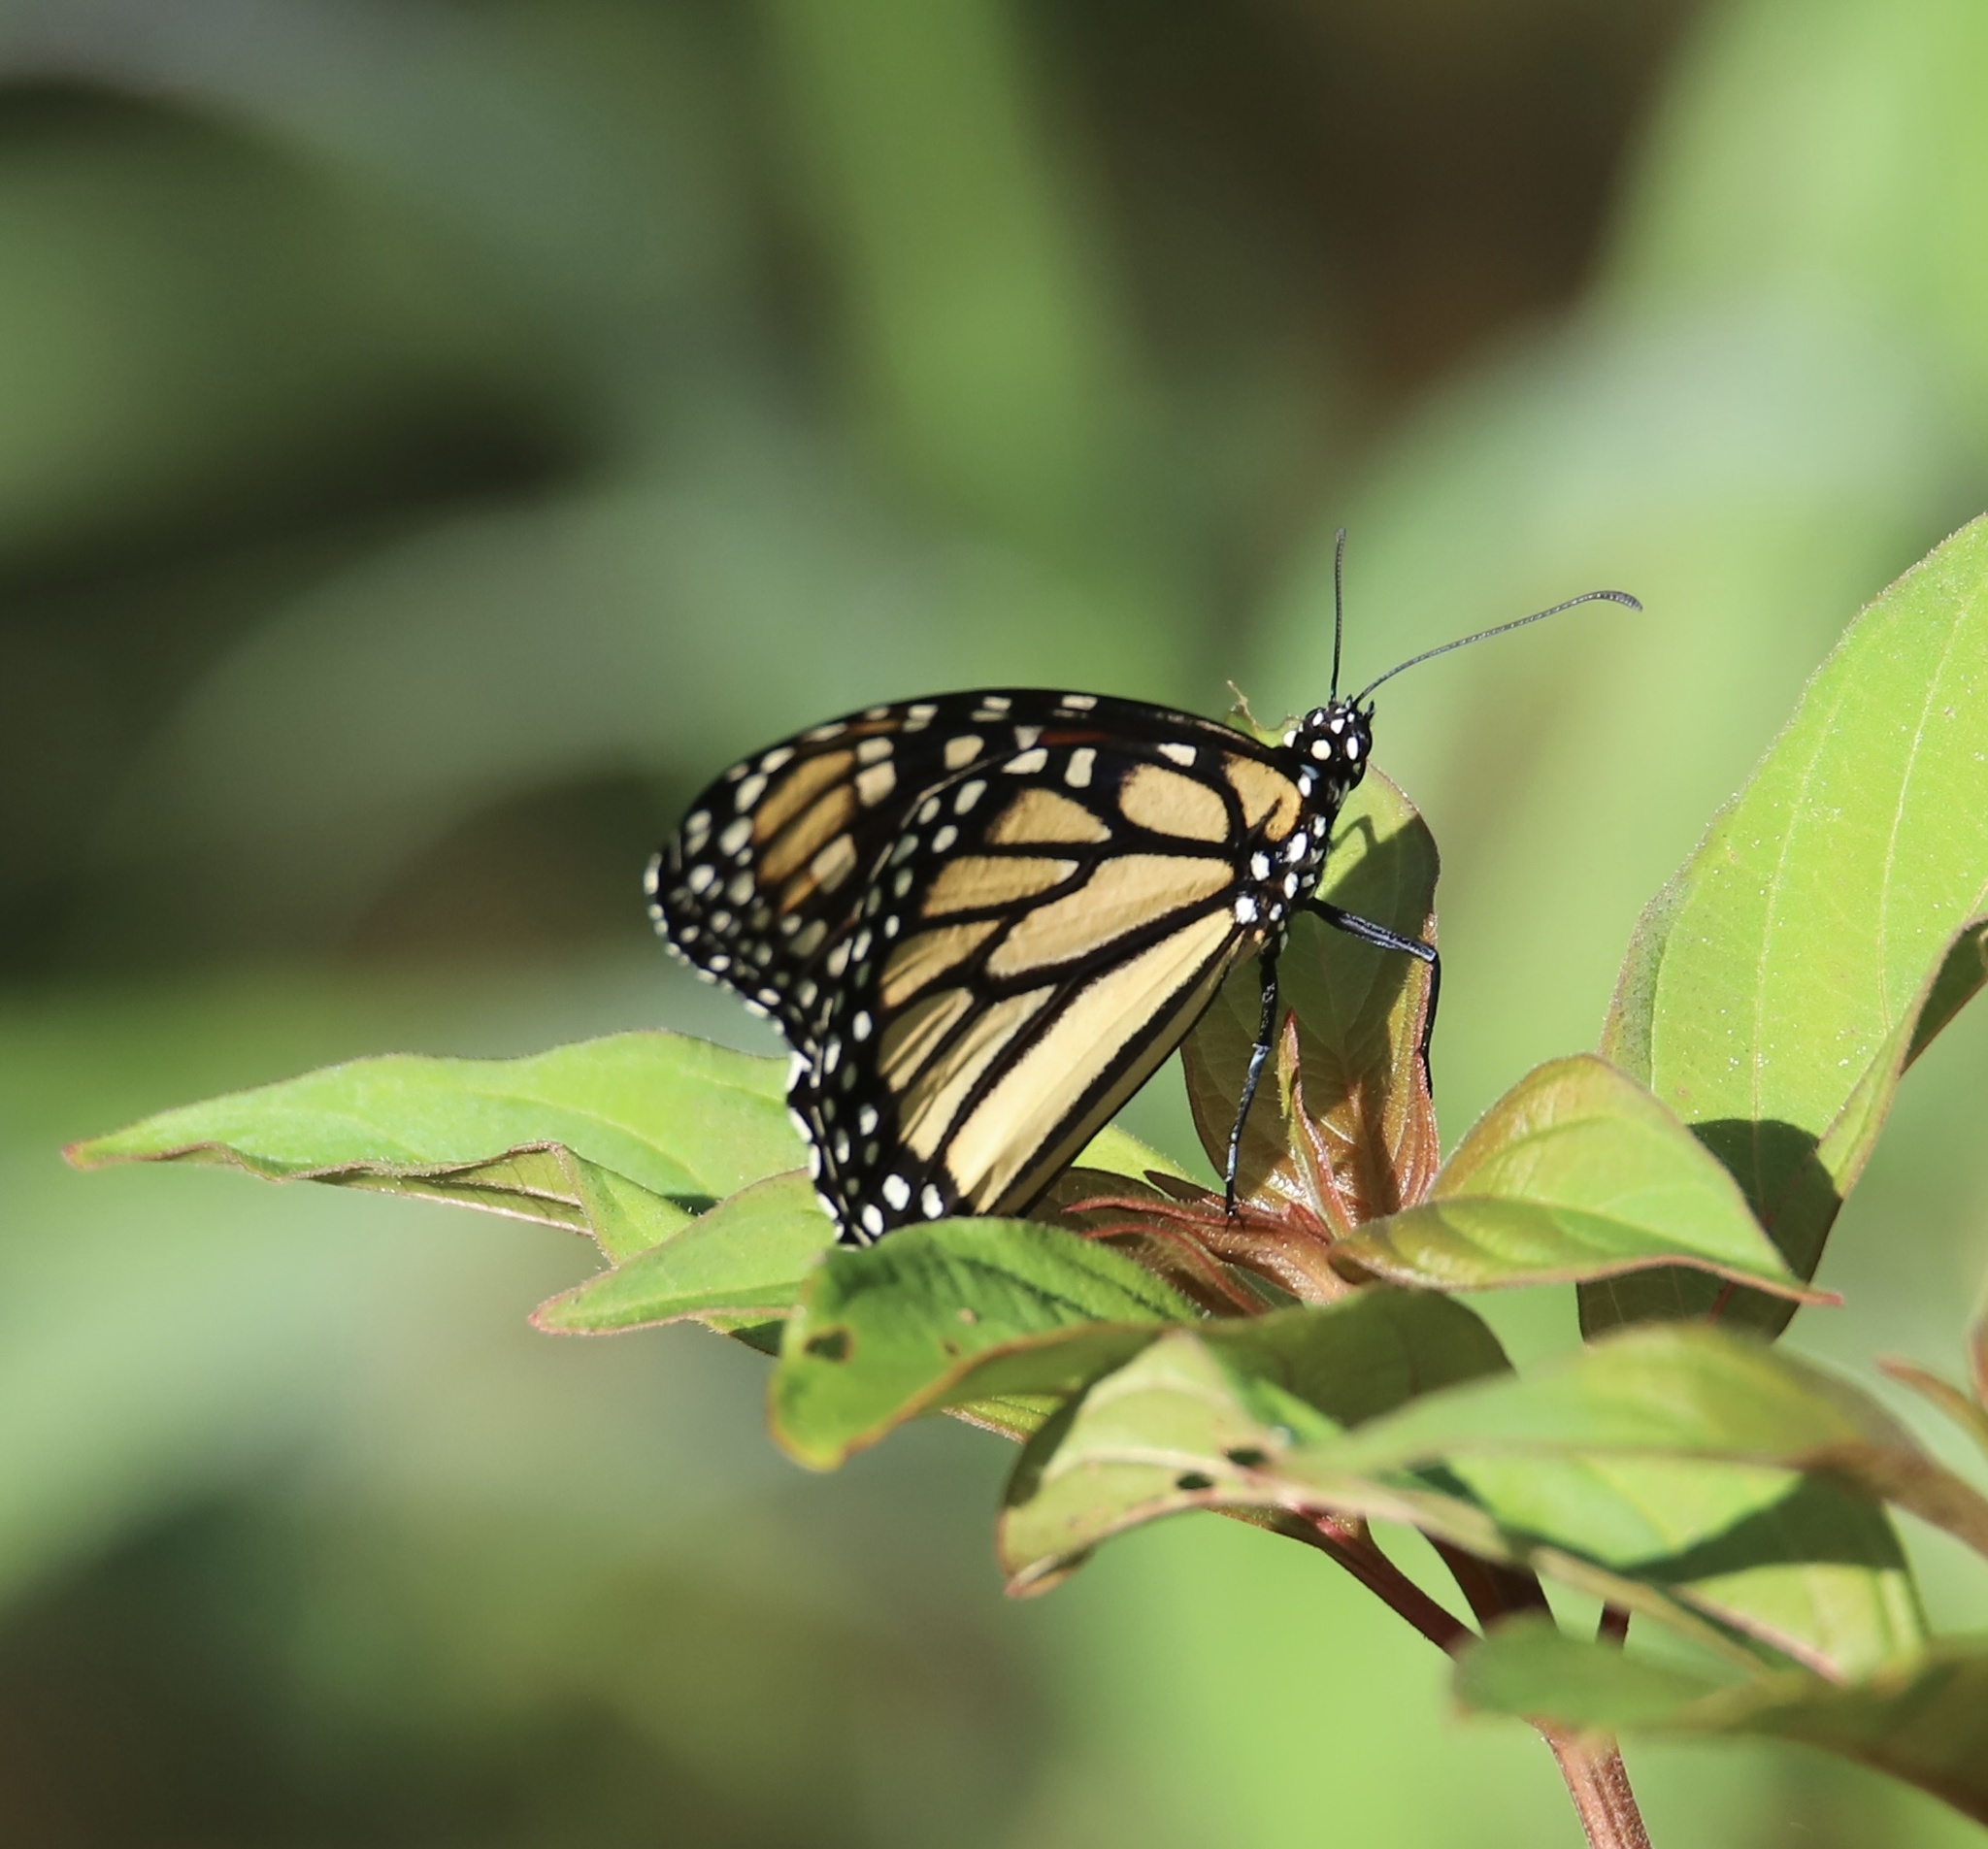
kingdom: Animalia
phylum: Arthropoda
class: Insecta
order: Lepidoptera
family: Nymphalidae
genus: Danaus
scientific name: Danaus plexippus
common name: Monarch
